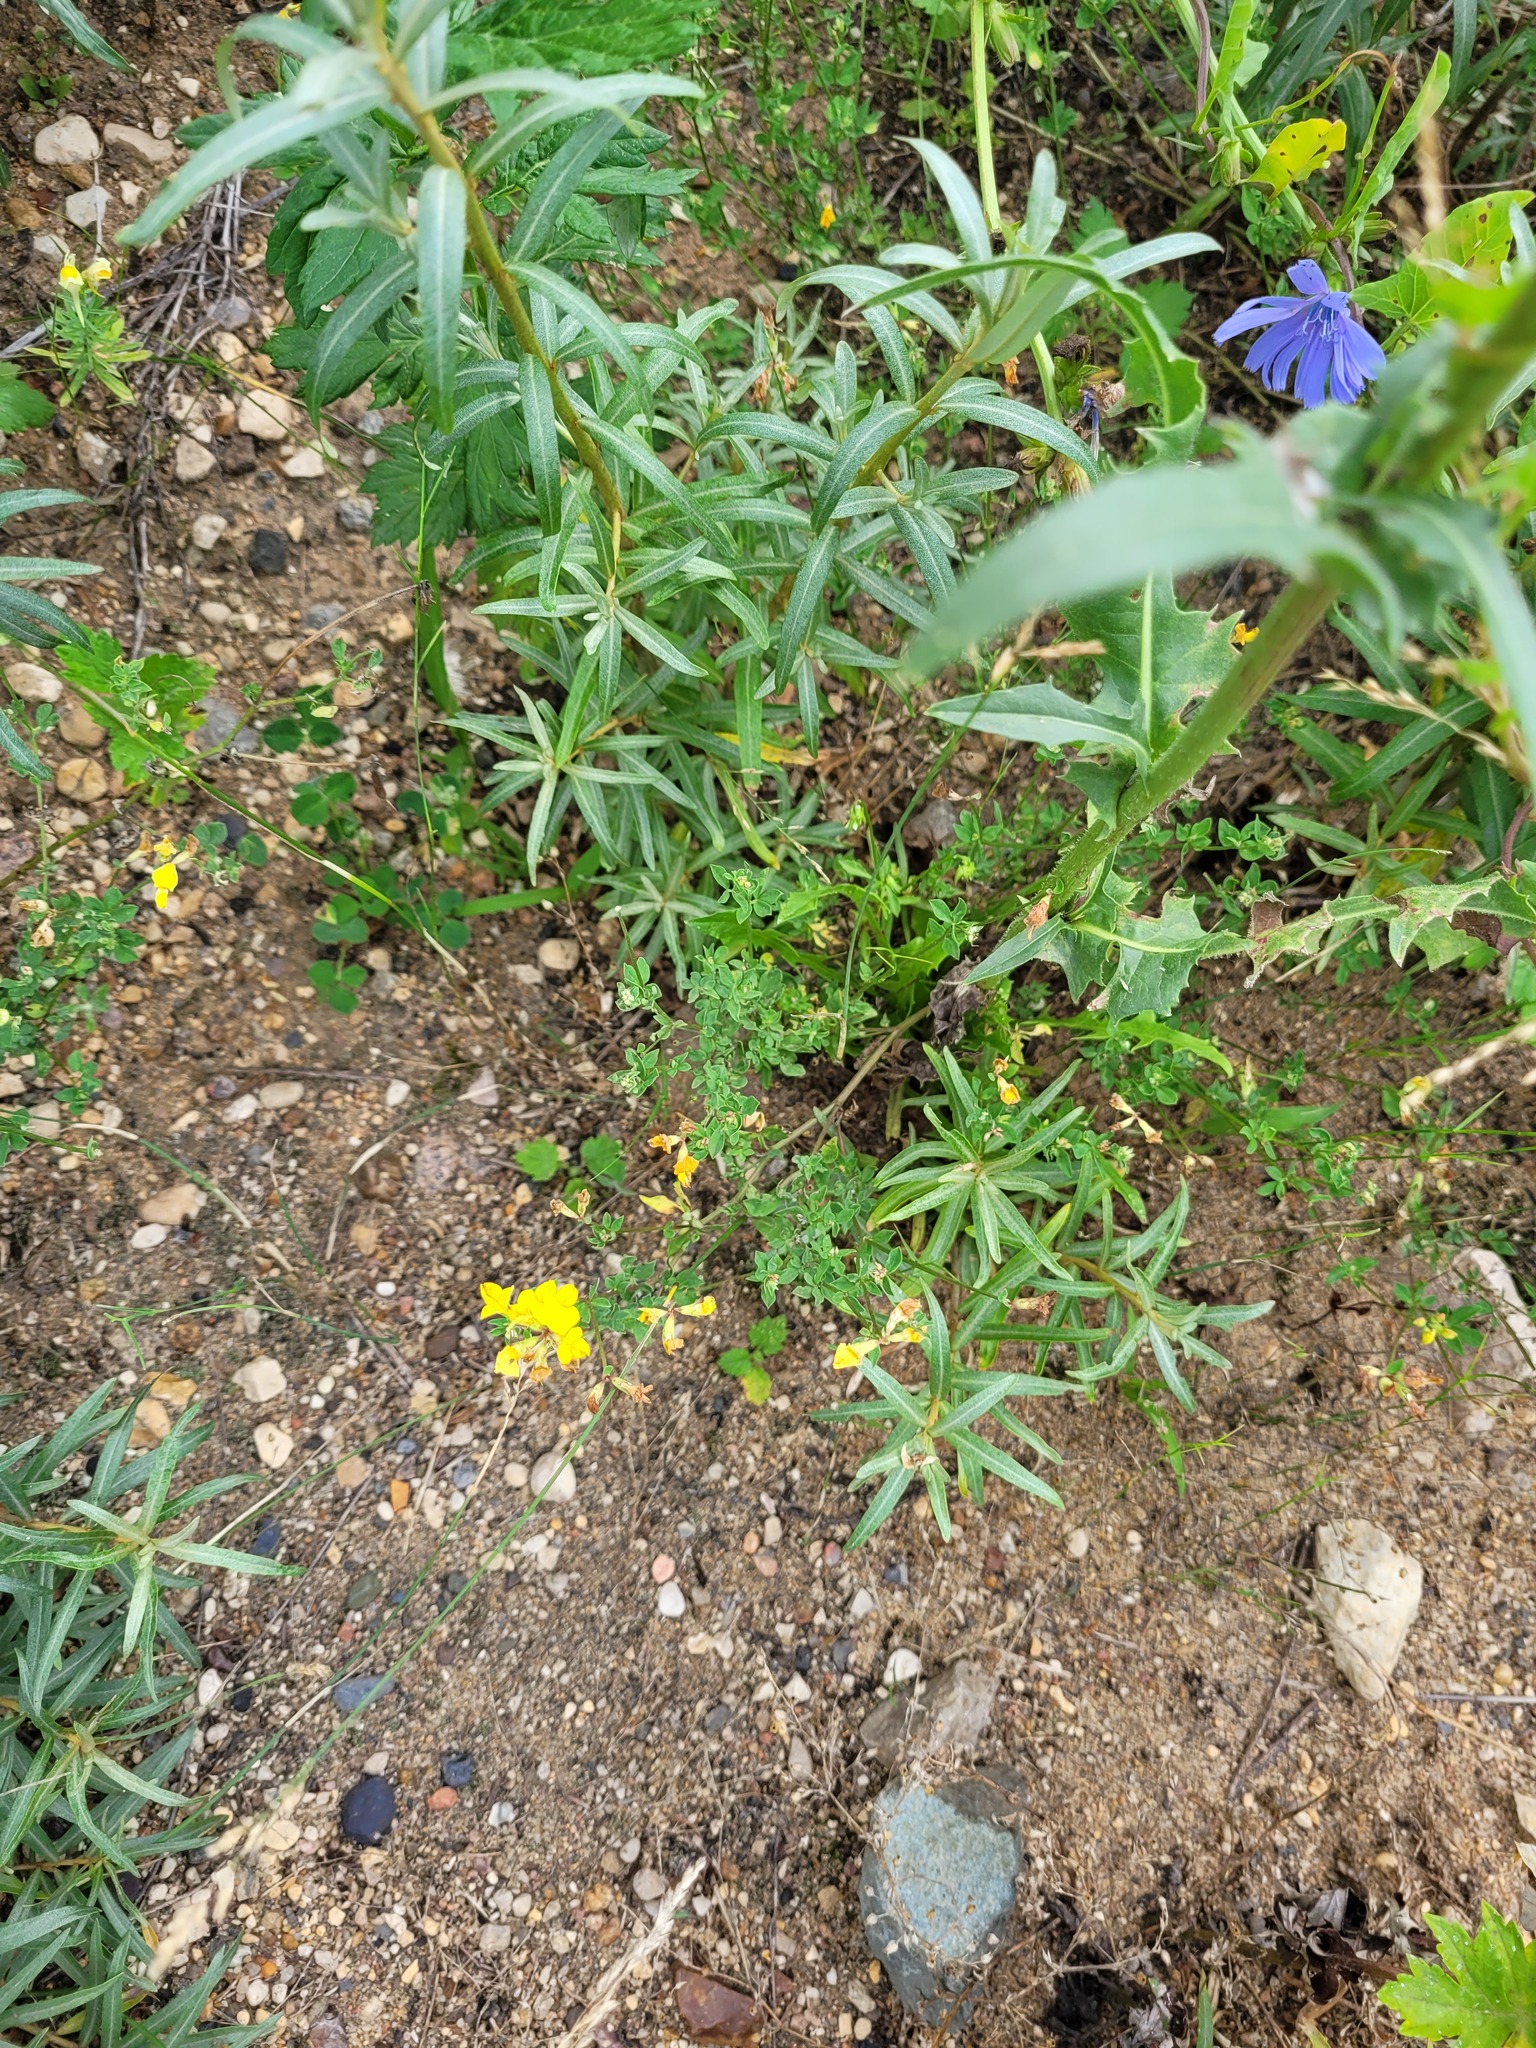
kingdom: Plantae
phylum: Tracheophyta
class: Magnoliopsida
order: Fabales
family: Fabaceae
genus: Lotus
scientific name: Lotus corniculatus
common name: Common bird's-foot-trefoil
